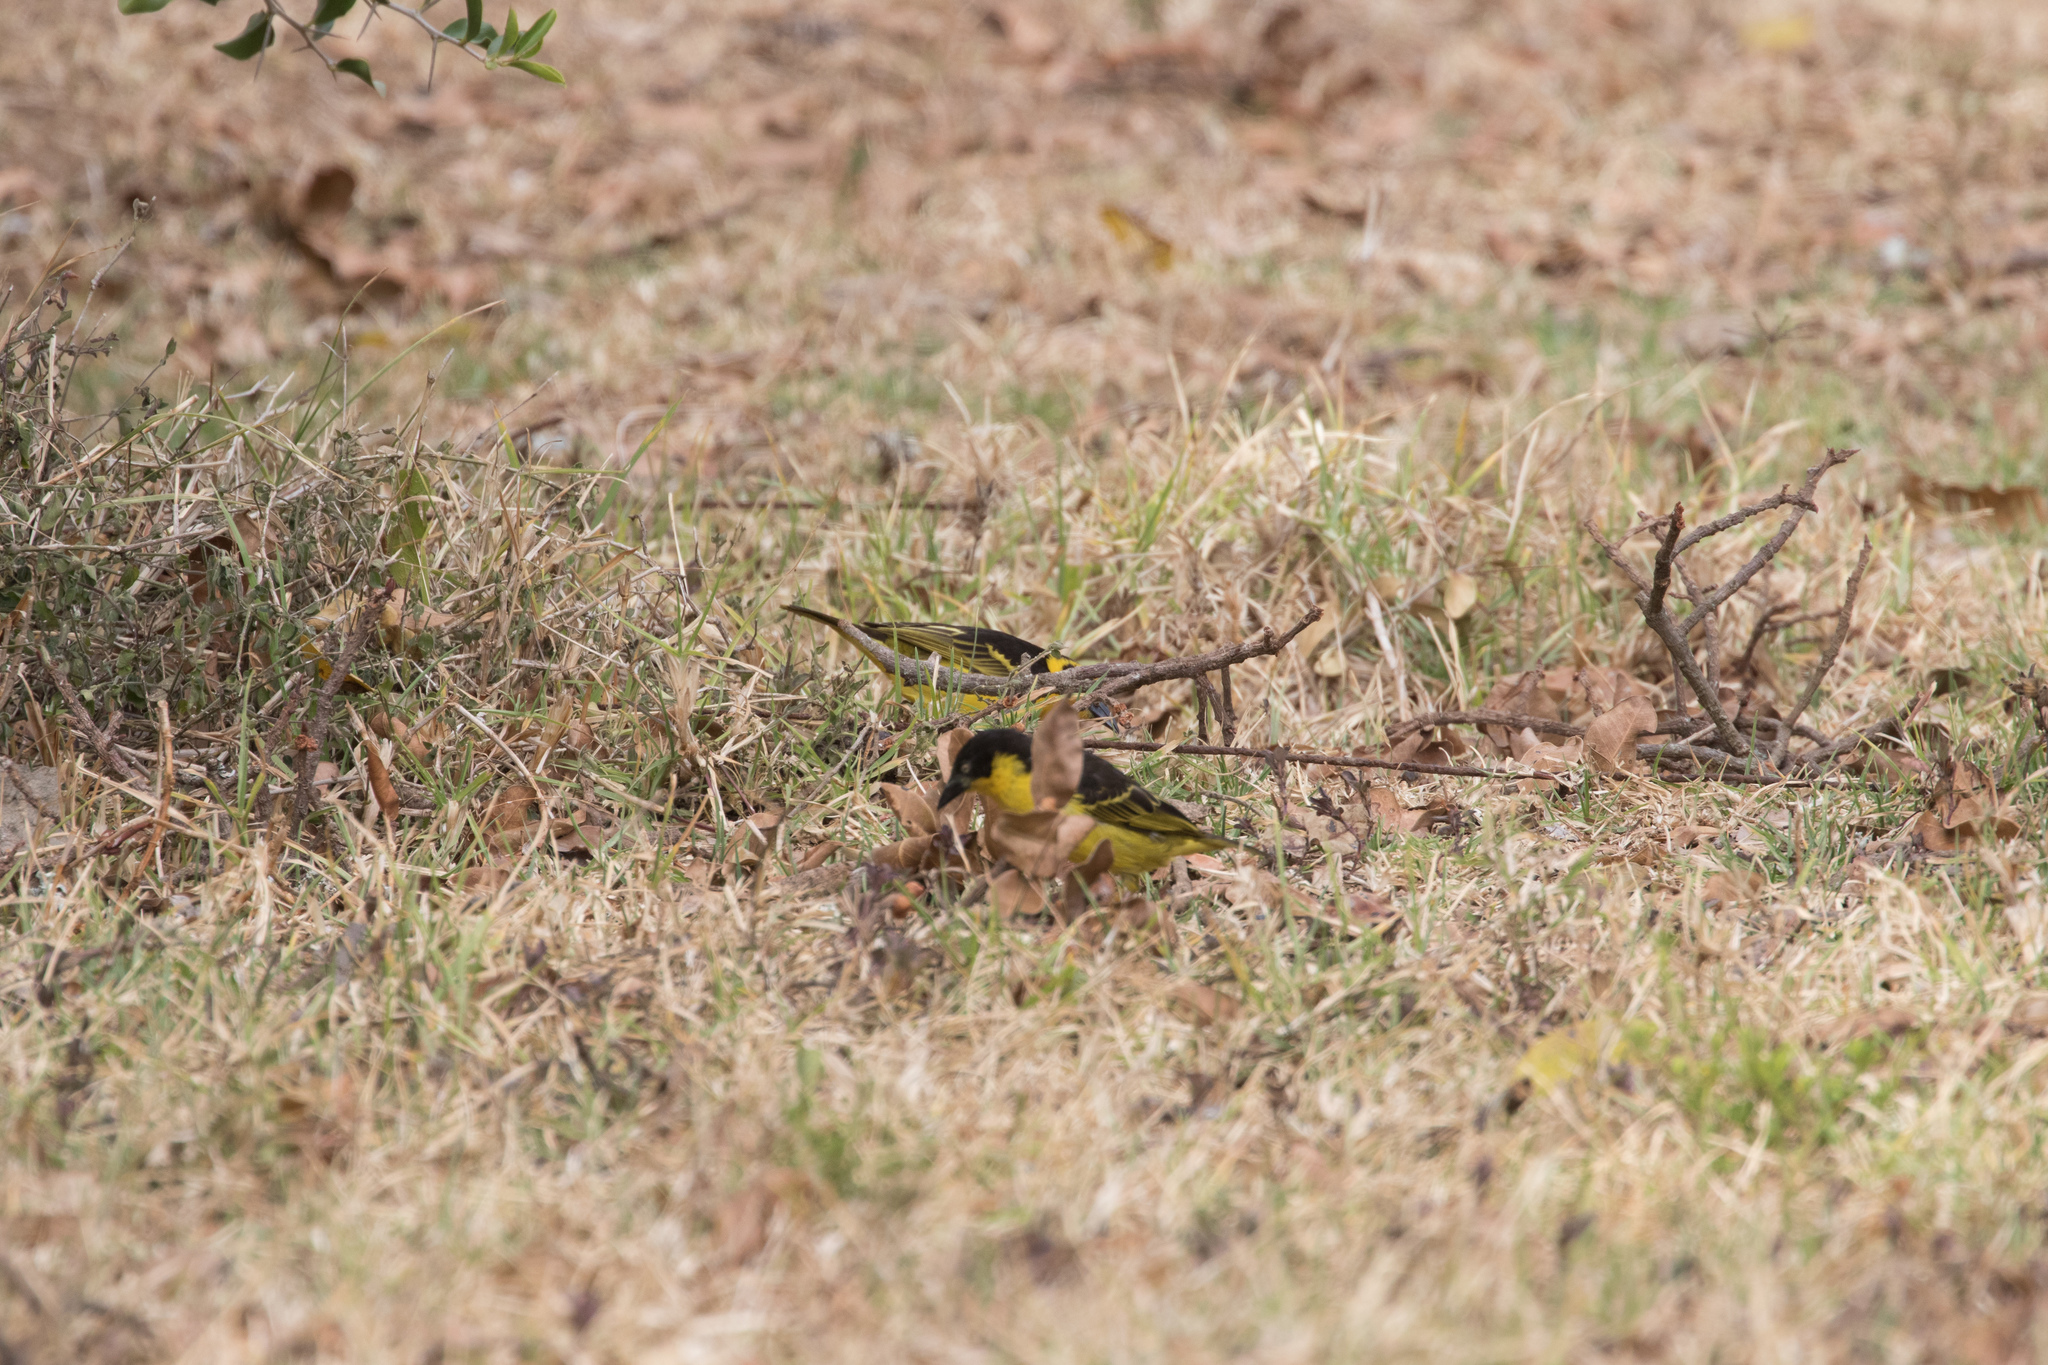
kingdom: Animalia
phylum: Chordata
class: Aves
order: Passeriformes
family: Ploceidae
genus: Ploceus
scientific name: Ploceus baglafecht
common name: Baglafecht weaver
